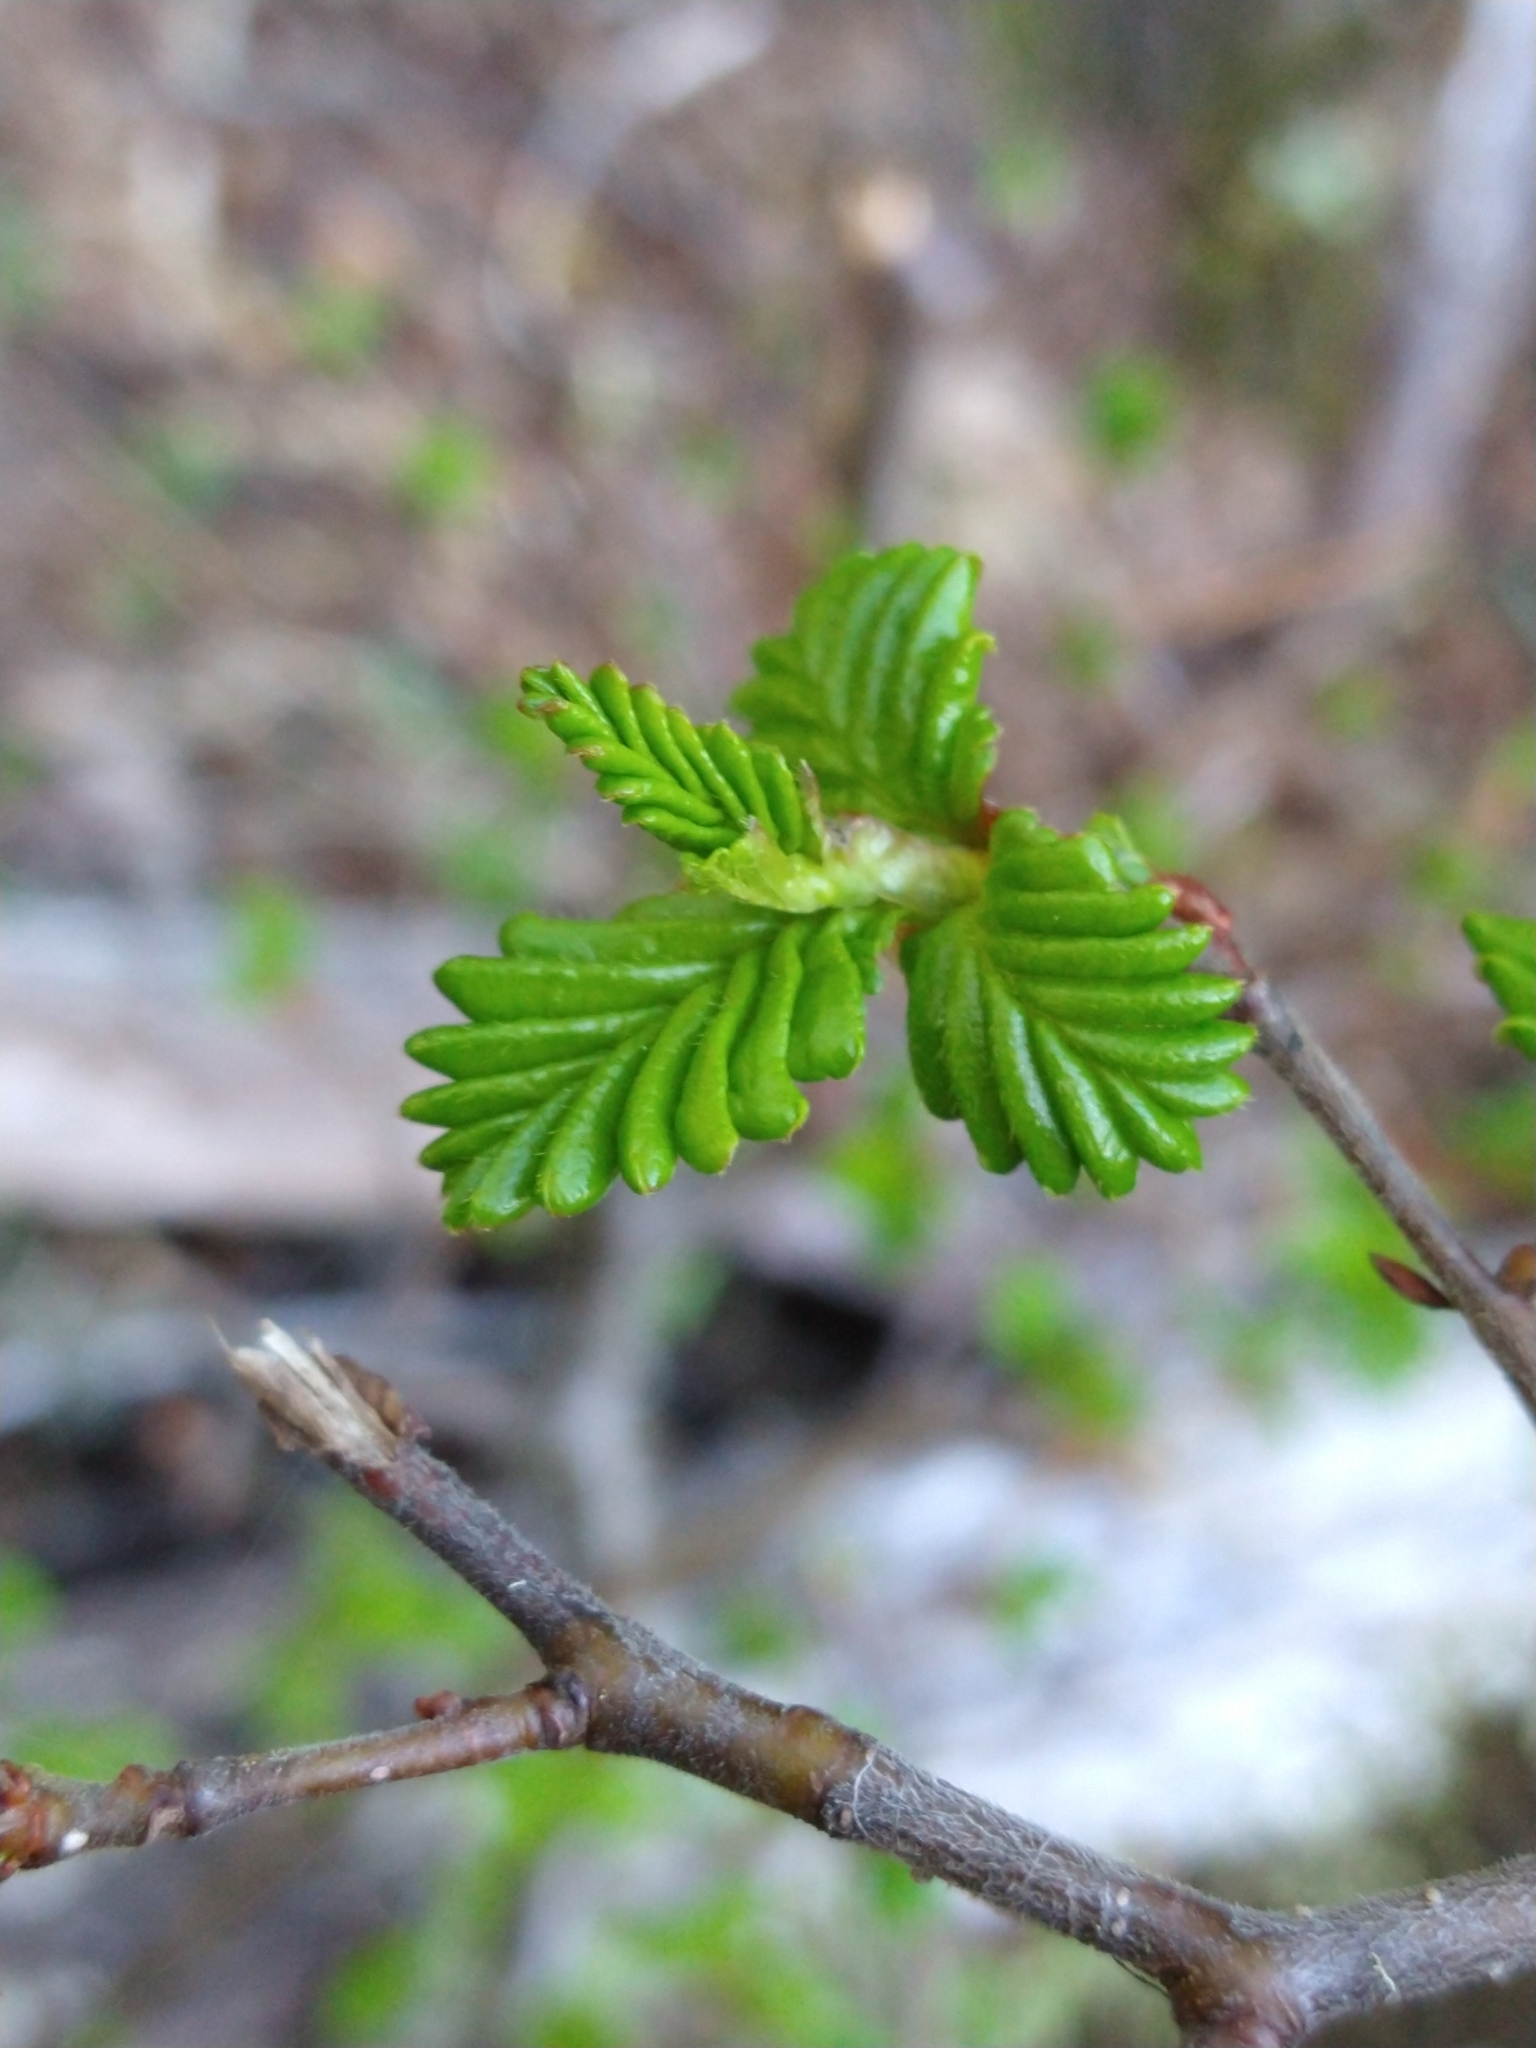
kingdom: Plantae
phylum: Tracheophyta
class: Magnoliopsida
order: Fagales
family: Nothofagaceae
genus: Nothofagus
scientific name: Nothofagus pumilio
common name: Lenga beech
